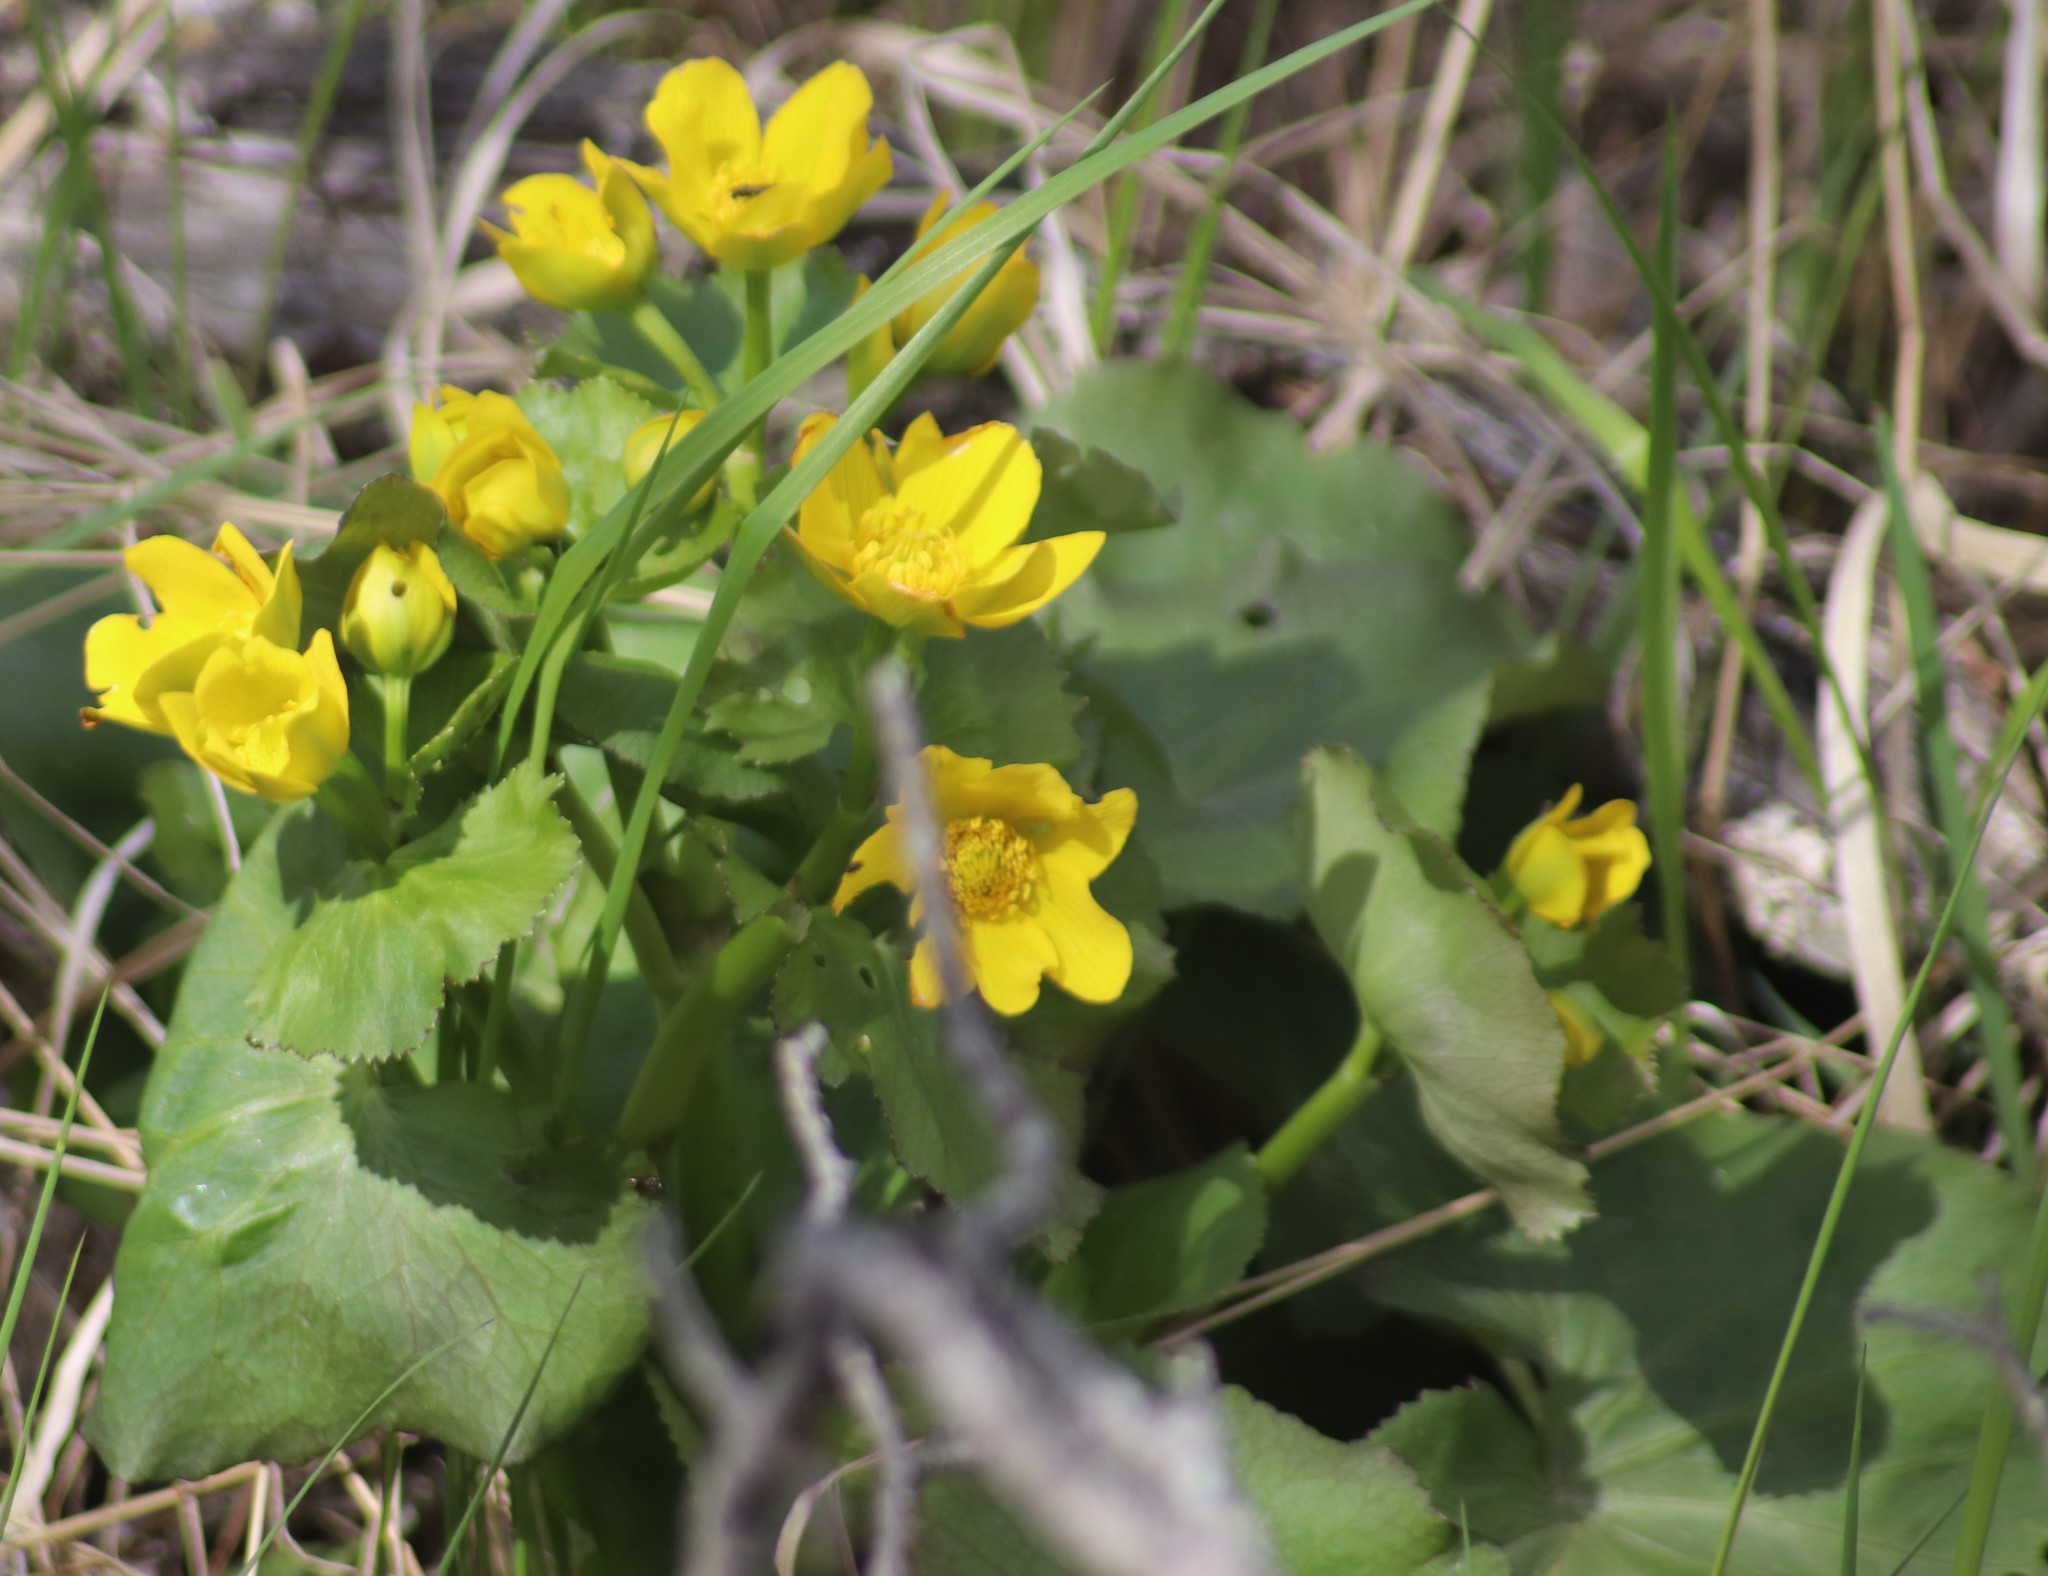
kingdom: Plantae
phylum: Tracheophyta
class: Magnoliopsida
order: Ranunculales
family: Ranunculaceae
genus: Caltha
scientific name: Caltha palustris
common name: Marsh marigold
